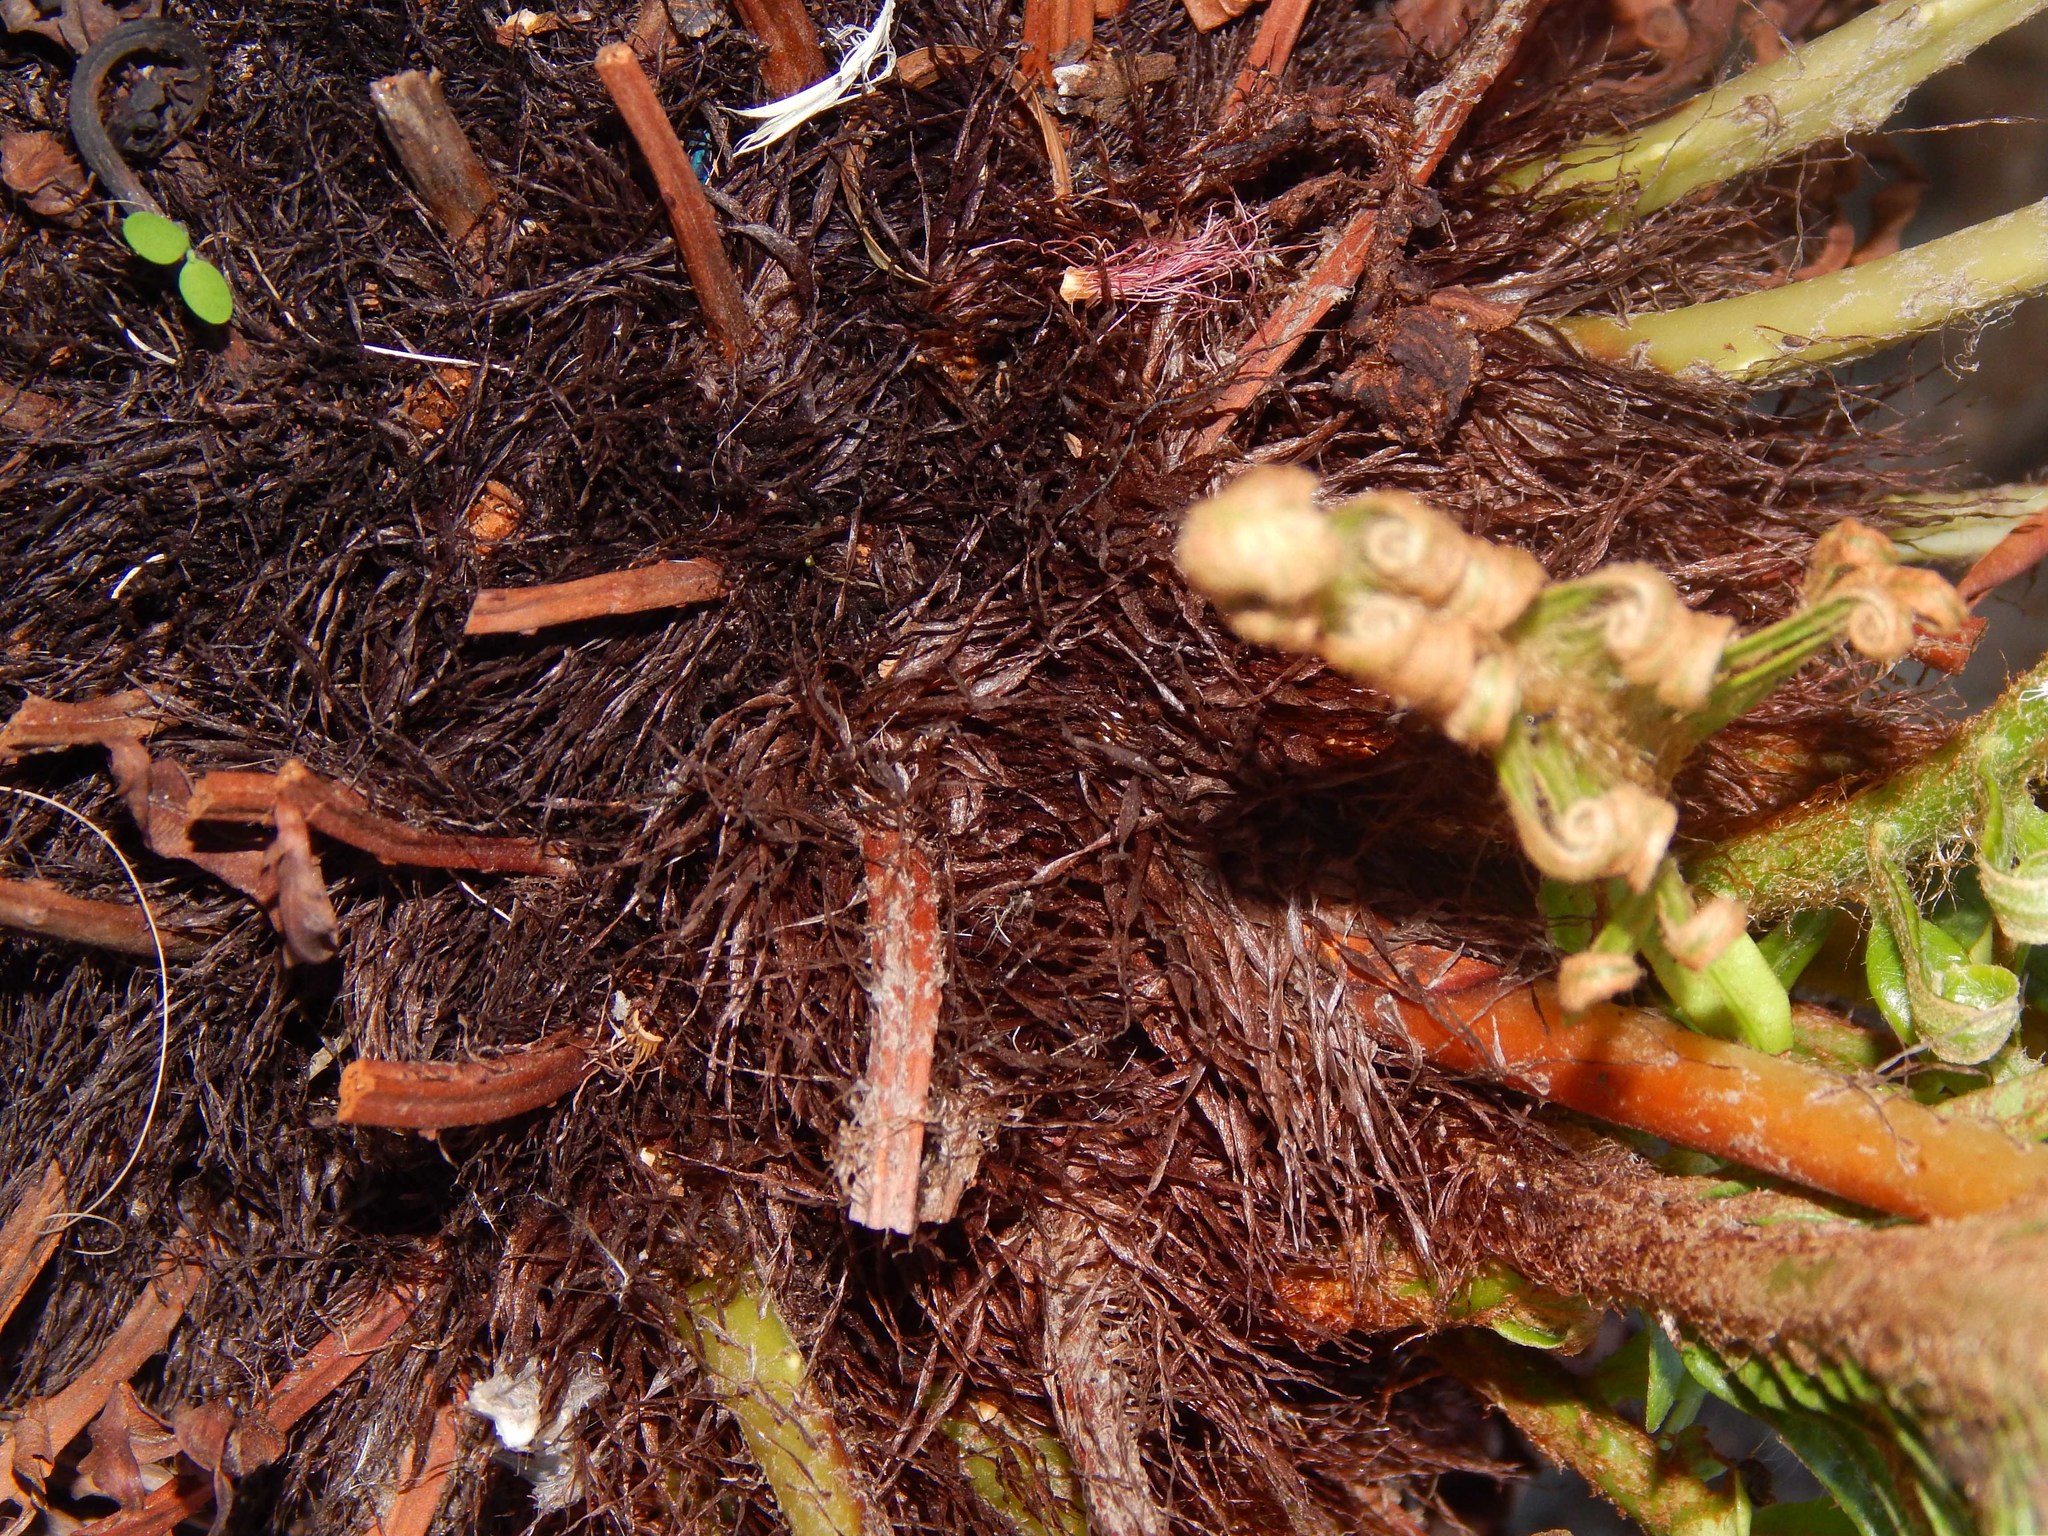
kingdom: Plantae
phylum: Tracheophyta
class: Polypodiopsida
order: Polypodiales
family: Blechnaceae
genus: Lomariocycas
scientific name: Lomariocycas tabularis
